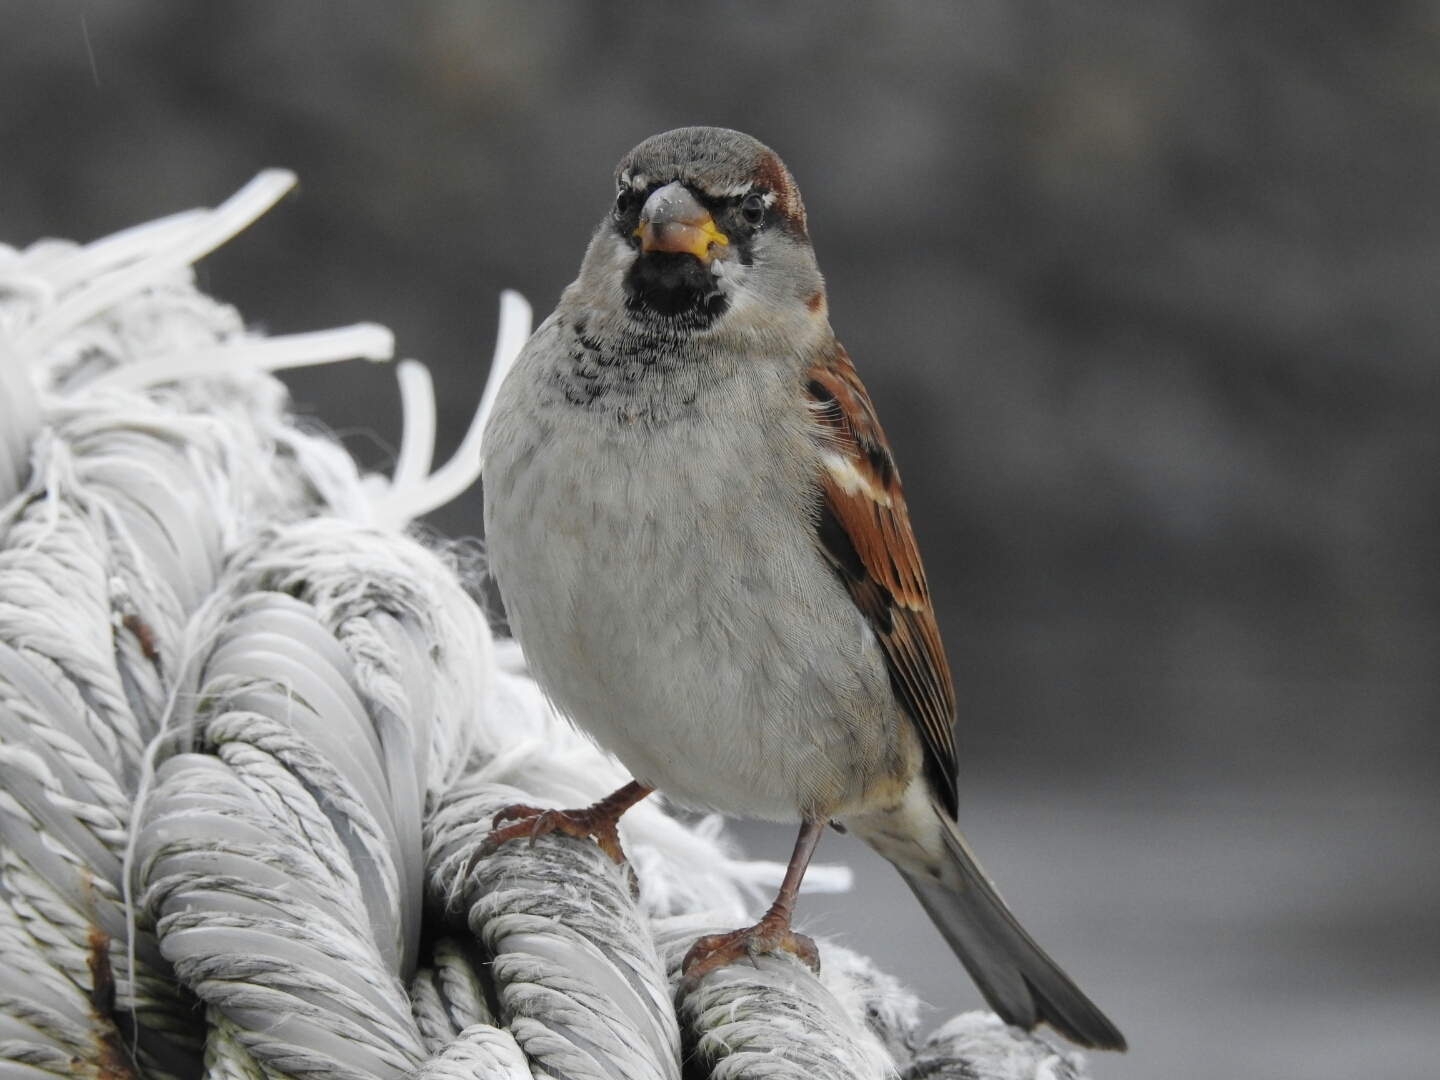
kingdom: Animalia
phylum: Chordata
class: Aves
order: Passeriformes
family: Passeridae
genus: Passer
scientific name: Passer domesticus
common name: House sparrow
